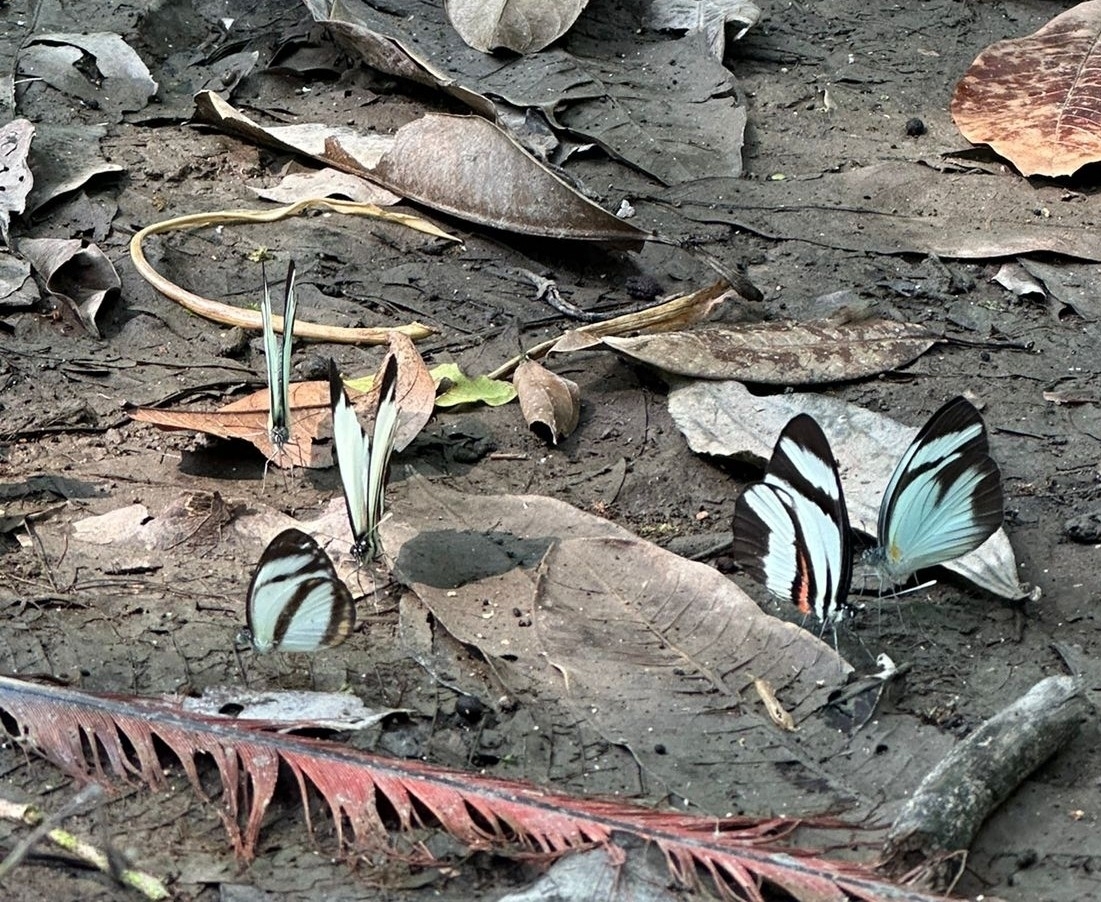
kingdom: Animalia
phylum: Arthropoda
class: Insecta
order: Lepidoptera
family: Pieridae
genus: Perrhybris
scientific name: Perrhybris lorena
